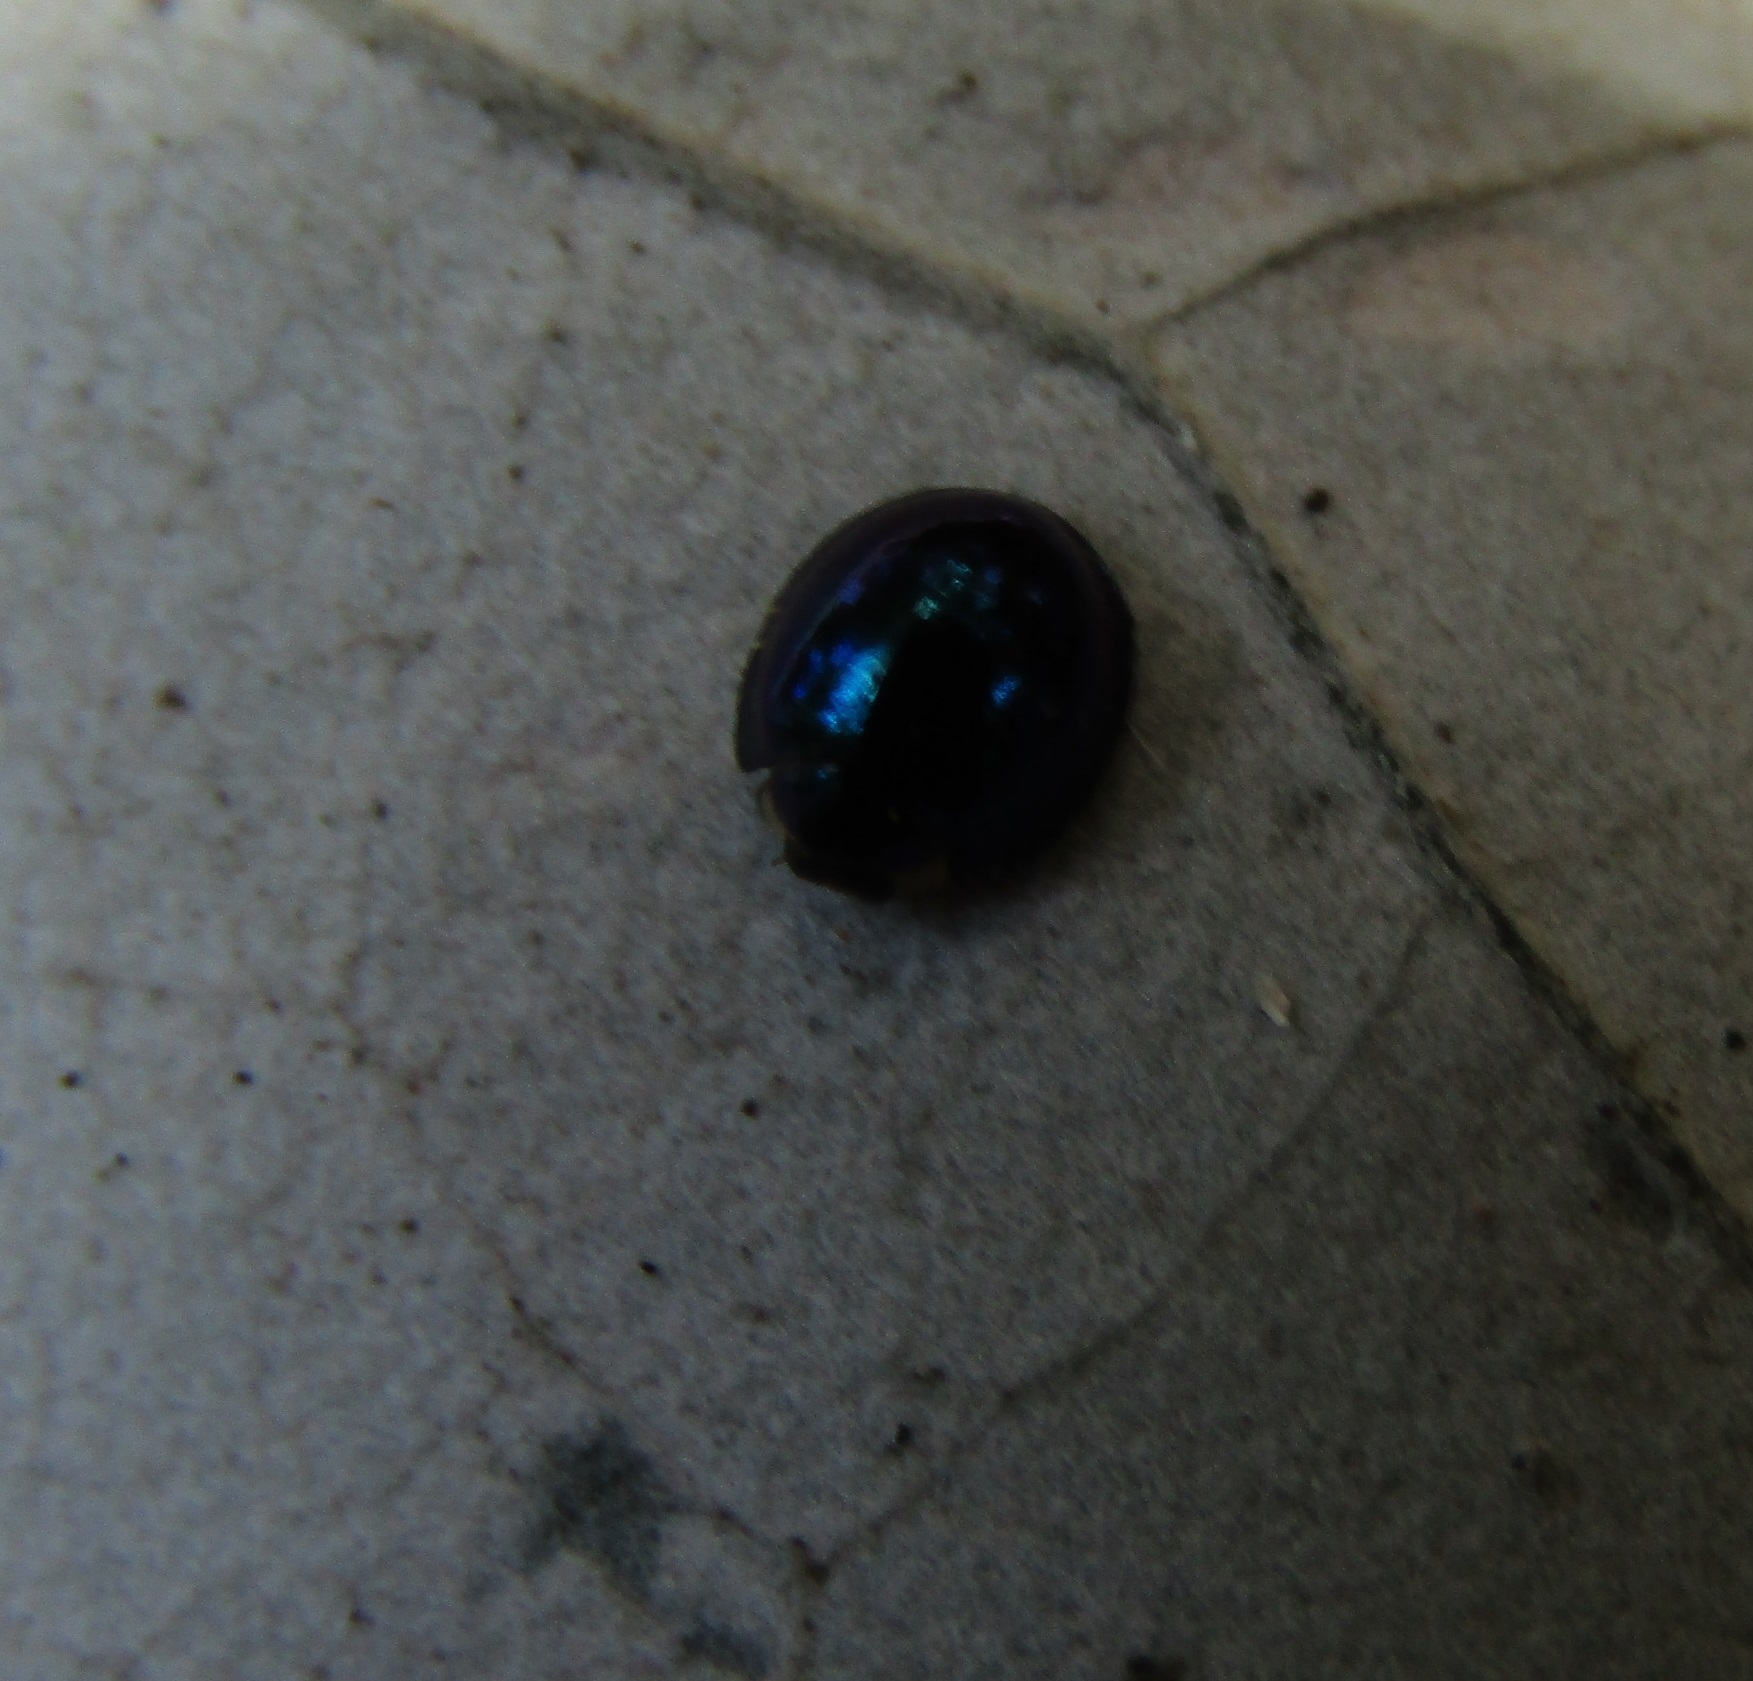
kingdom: Animalia
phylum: Arthropoda
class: Insecta
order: Coleoptera
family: Coccinellidae
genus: Halmus
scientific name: Halmus chalybeus
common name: Steel blue ladybird beetle
